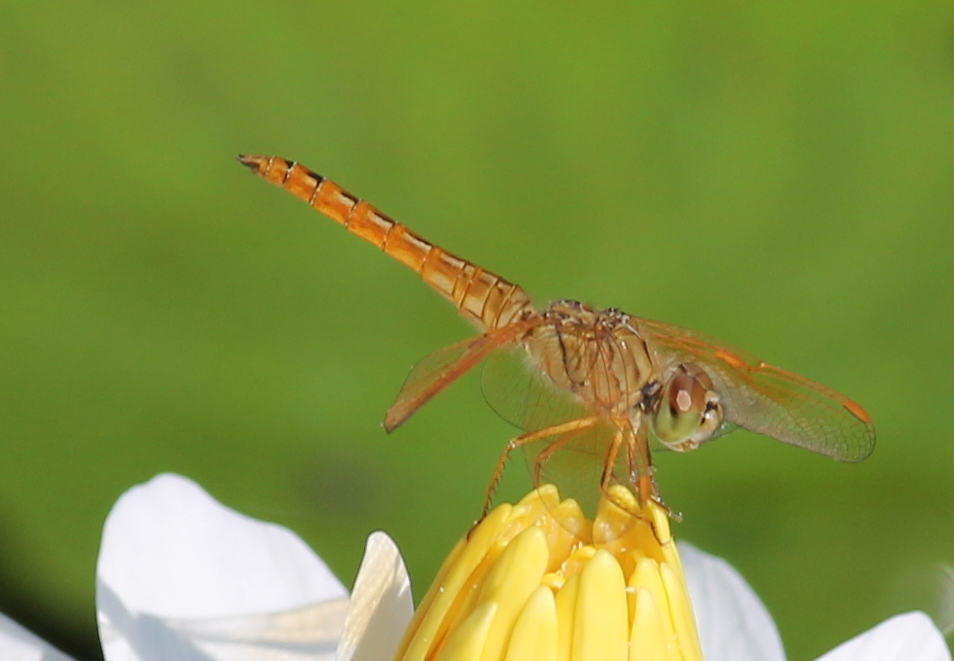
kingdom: Animalia
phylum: Arthropoda
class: Insecta
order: Odonata
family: Libellulidae
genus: Brachythemis
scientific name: Brachythemis contaminata
